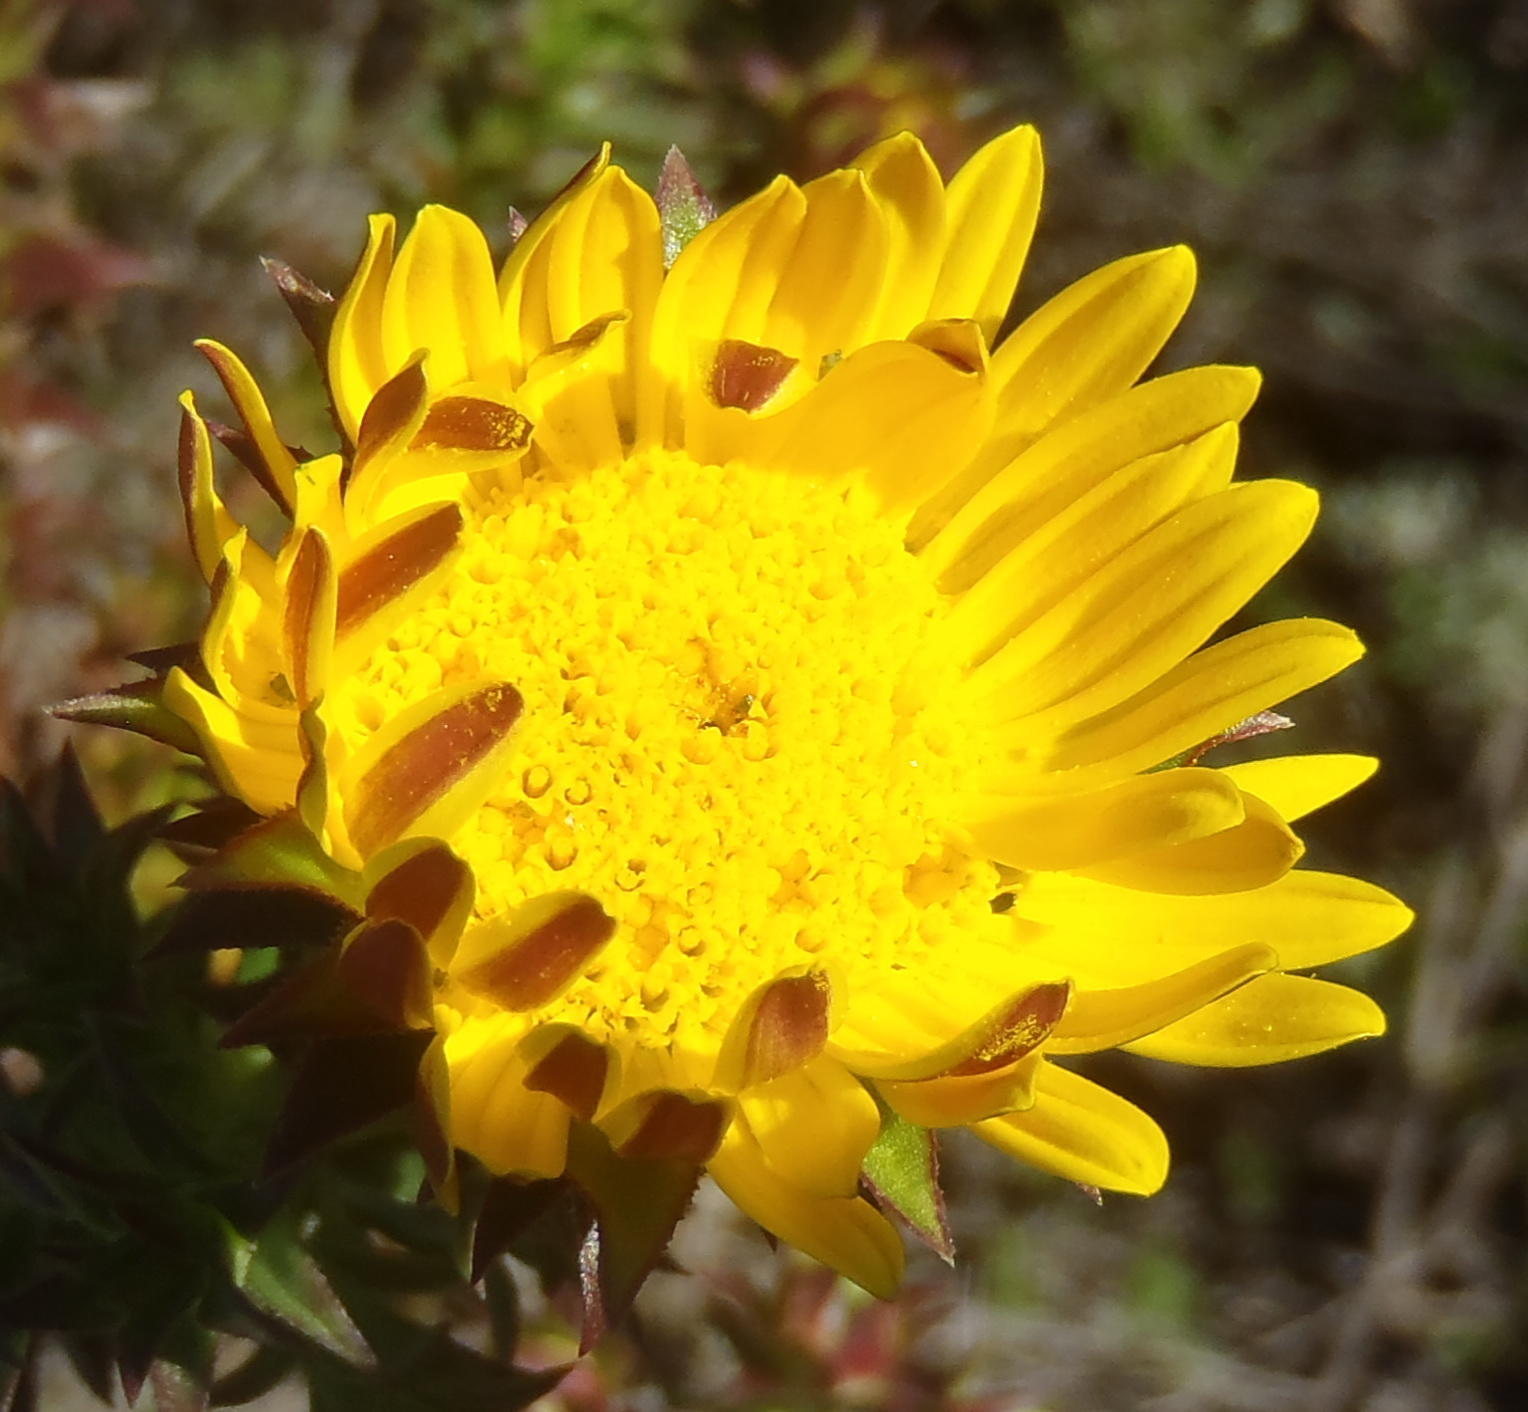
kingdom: Plantae
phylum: Tracheophyta
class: Magnoliopsida
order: Asterales
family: Asteraceae
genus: Oedera
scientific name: Oedera imbricata
